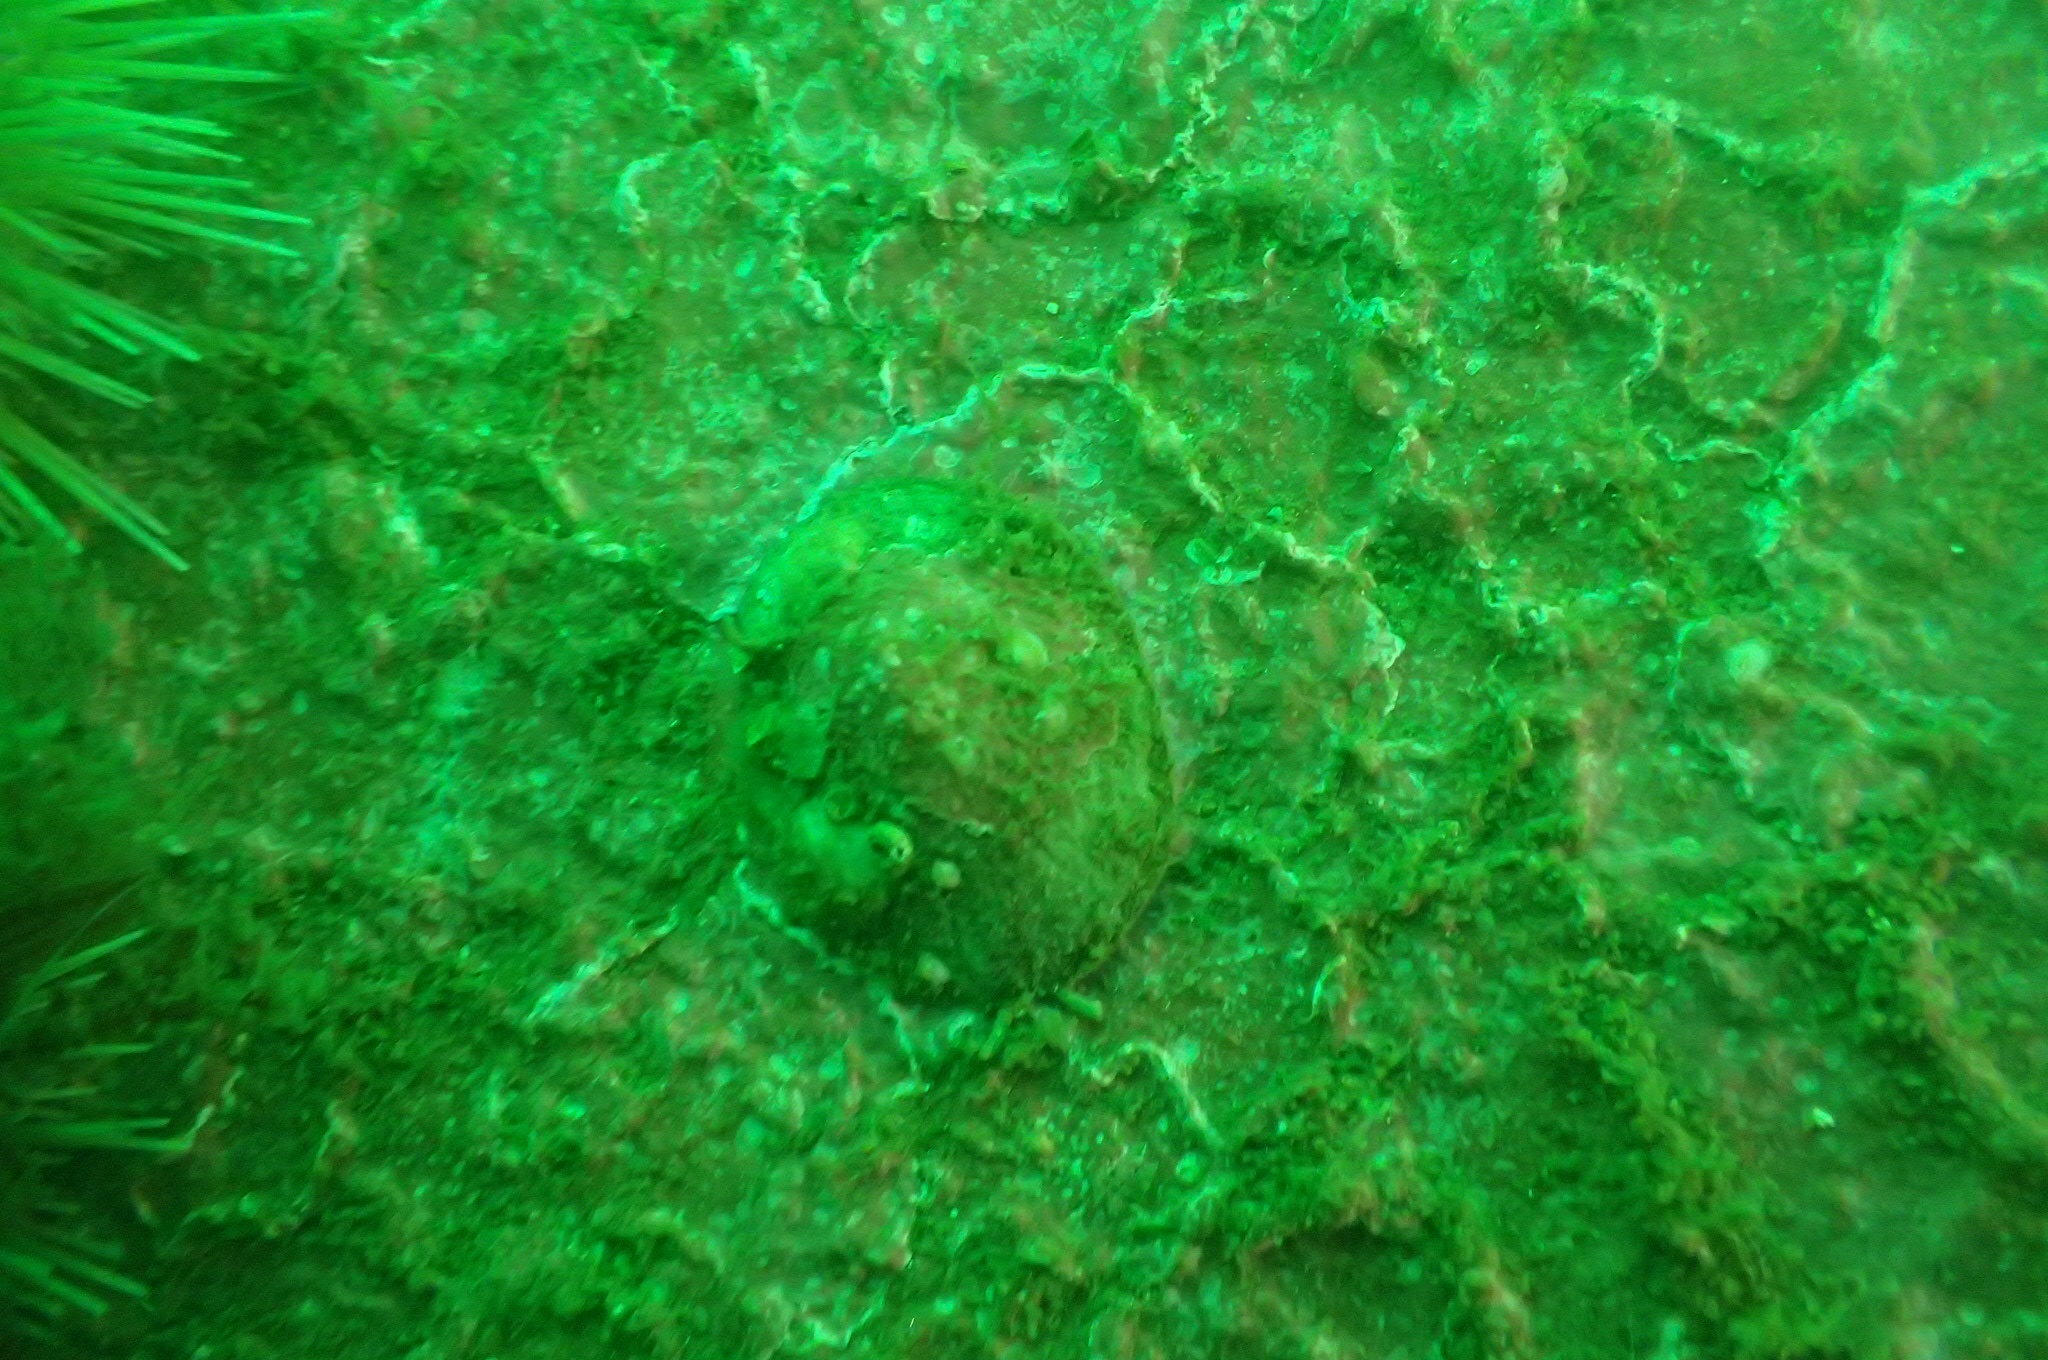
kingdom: Animalia
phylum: Mollusca
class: Gastropoda
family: Lottiidae
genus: Testudinalia
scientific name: Testudinalia testudinalis
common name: Common tortoiseshell limpet
